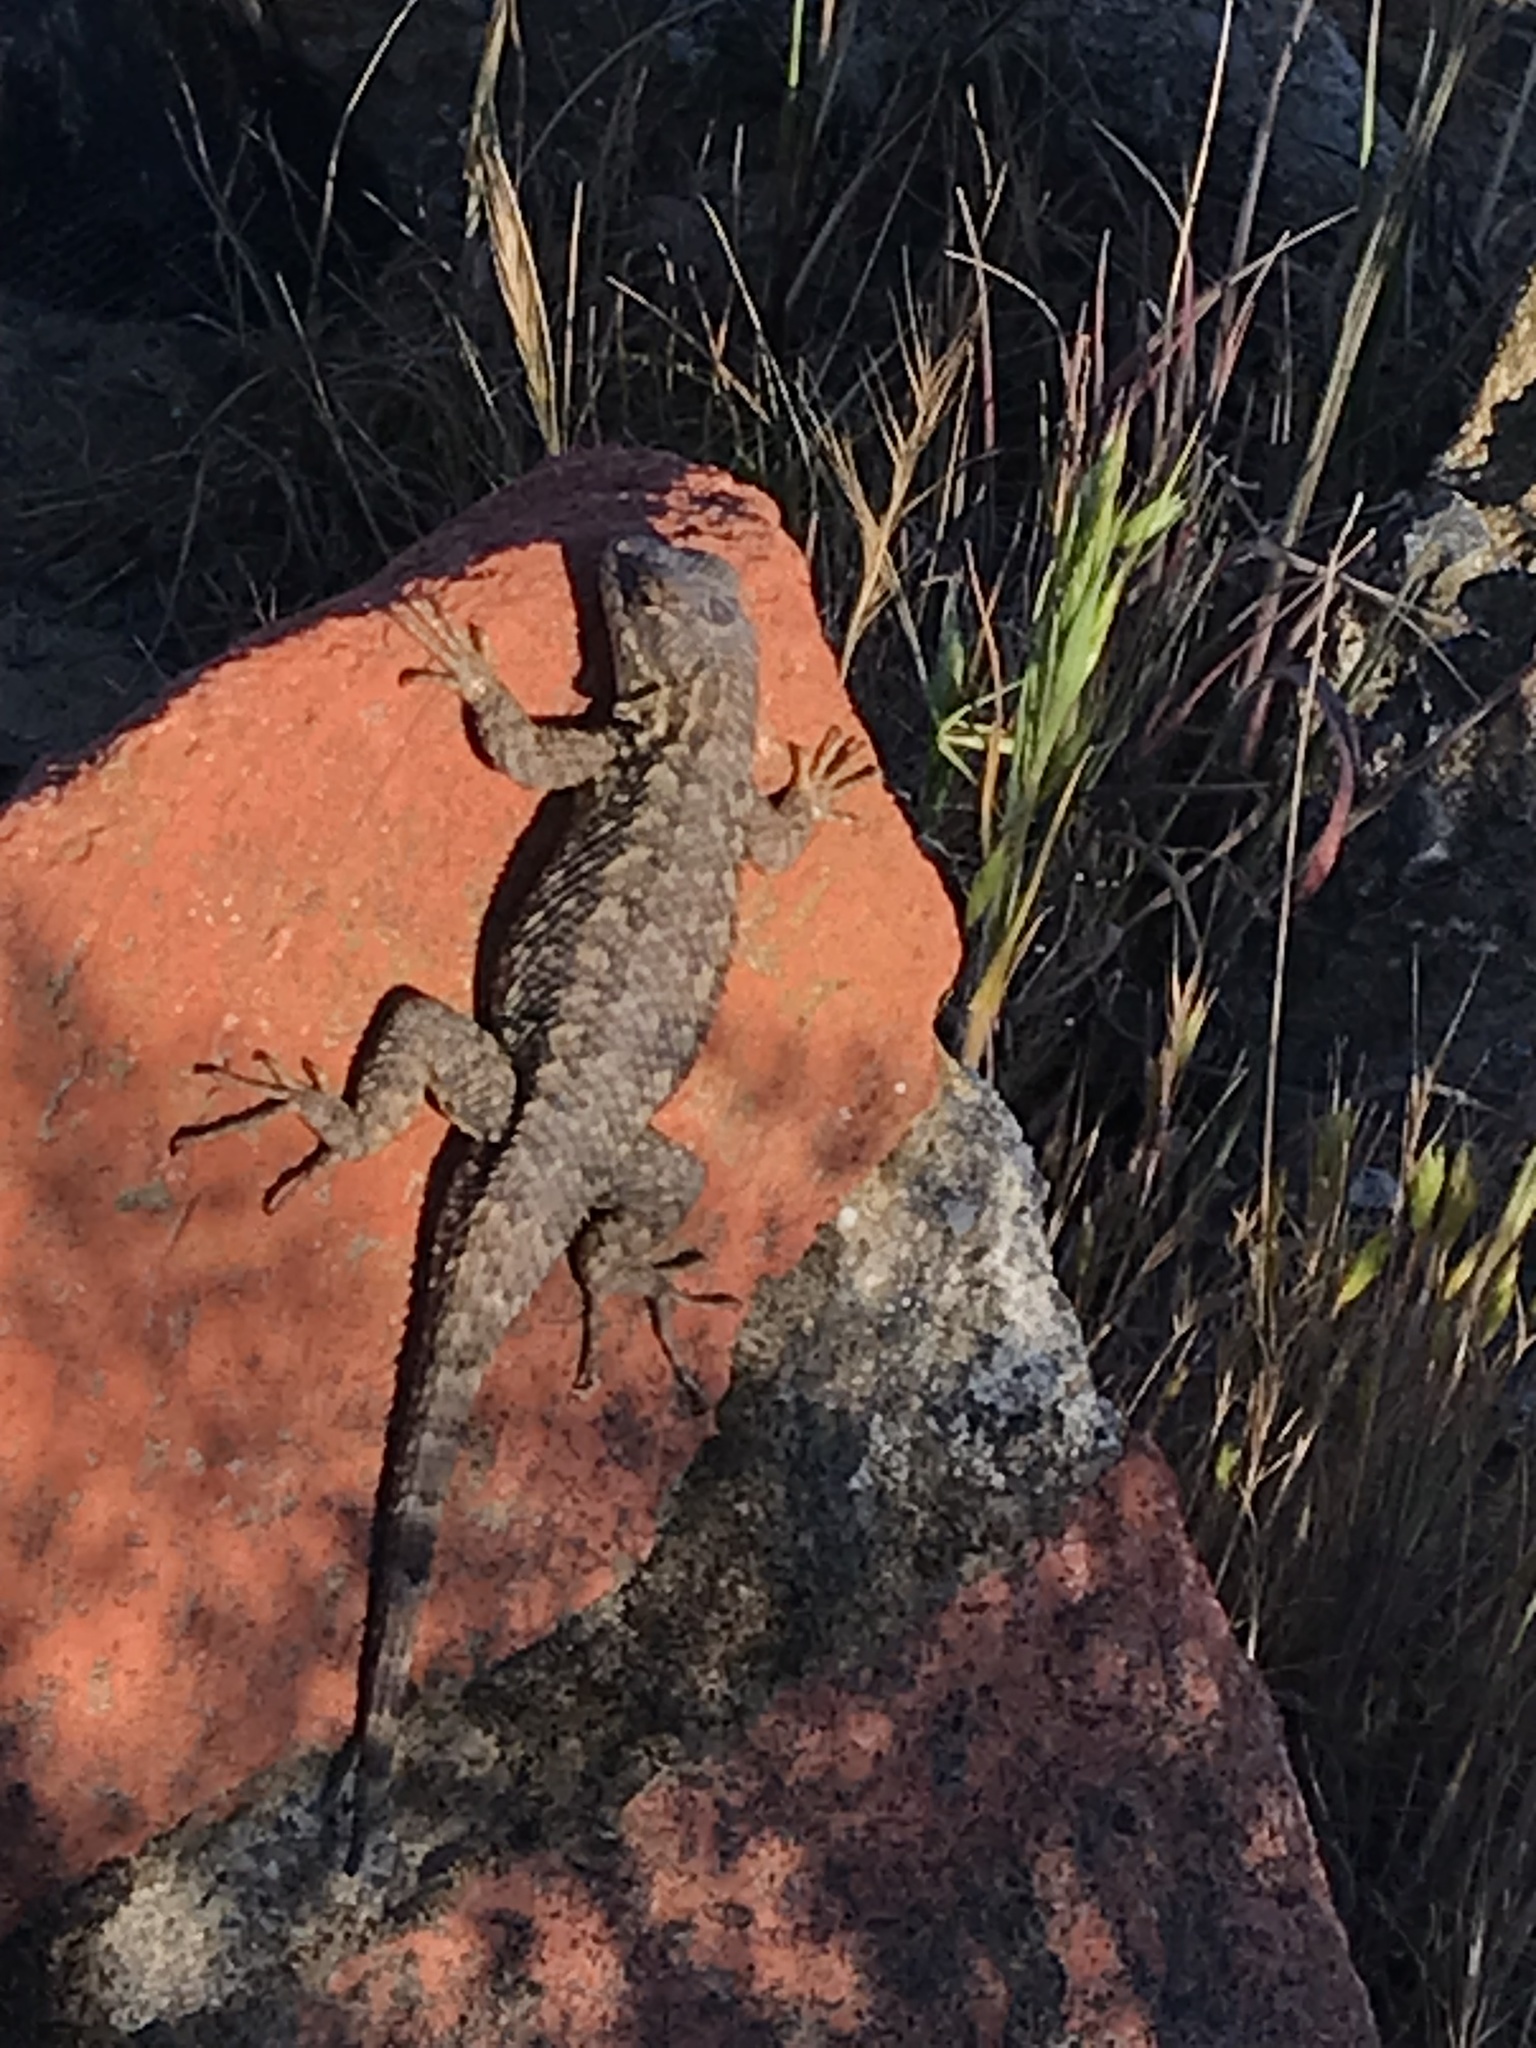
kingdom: Animalia
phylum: Chordata
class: Squamata
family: Phrynosomatidae
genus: Sceloporus
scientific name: Sceloporus occidentalis
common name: Western fence lizard
